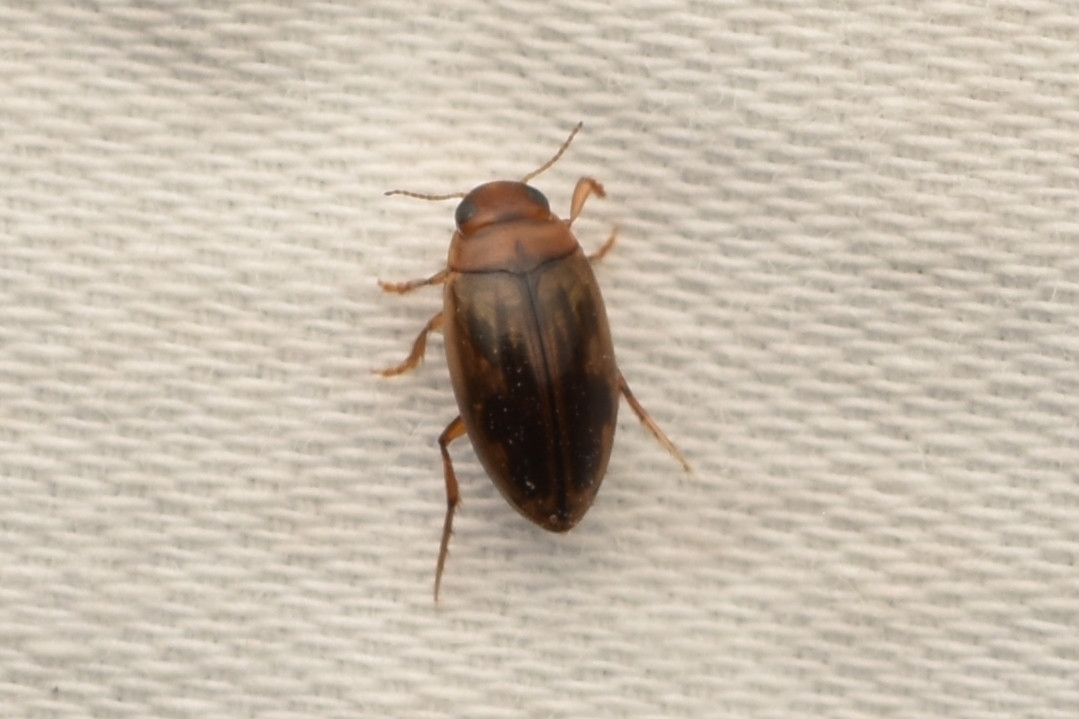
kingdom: Animalia
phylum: Arthropoda
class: Insecta
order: Coleoptera
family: Dytiscidae
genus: Hygrotus
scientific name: Hygrotus nubilus
